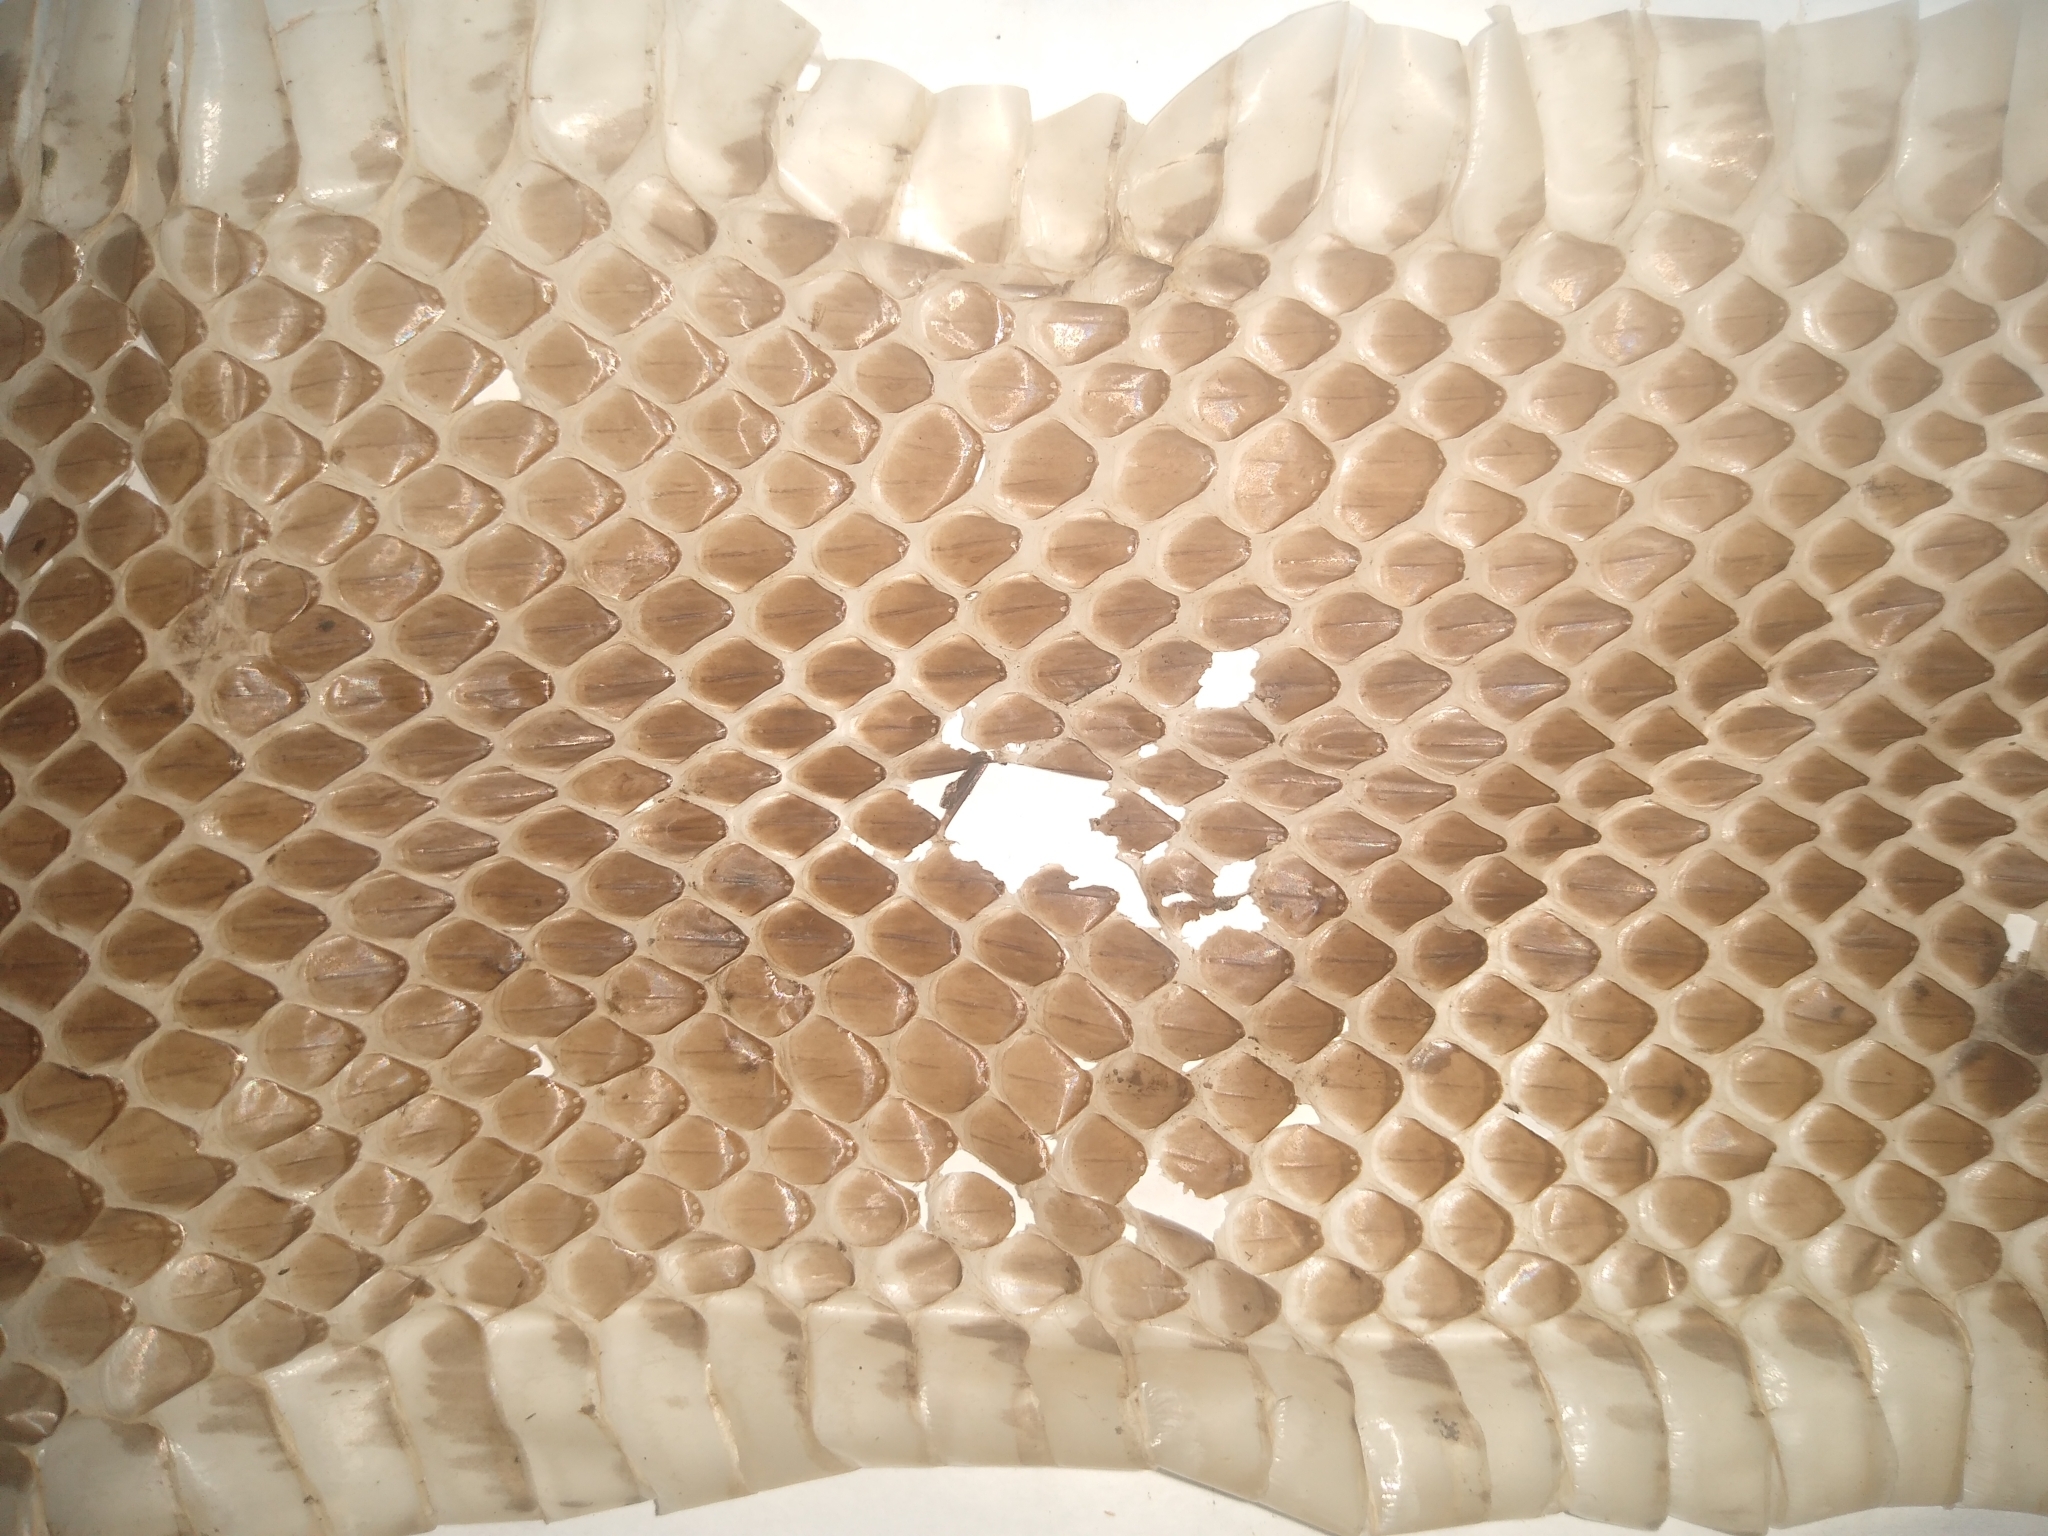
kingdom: Animalia
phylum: Chordata
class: Squamata
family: Colubridae
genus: Pantherophis
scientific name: Pantherophis alleghaniensis
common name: Eastern rat snake
